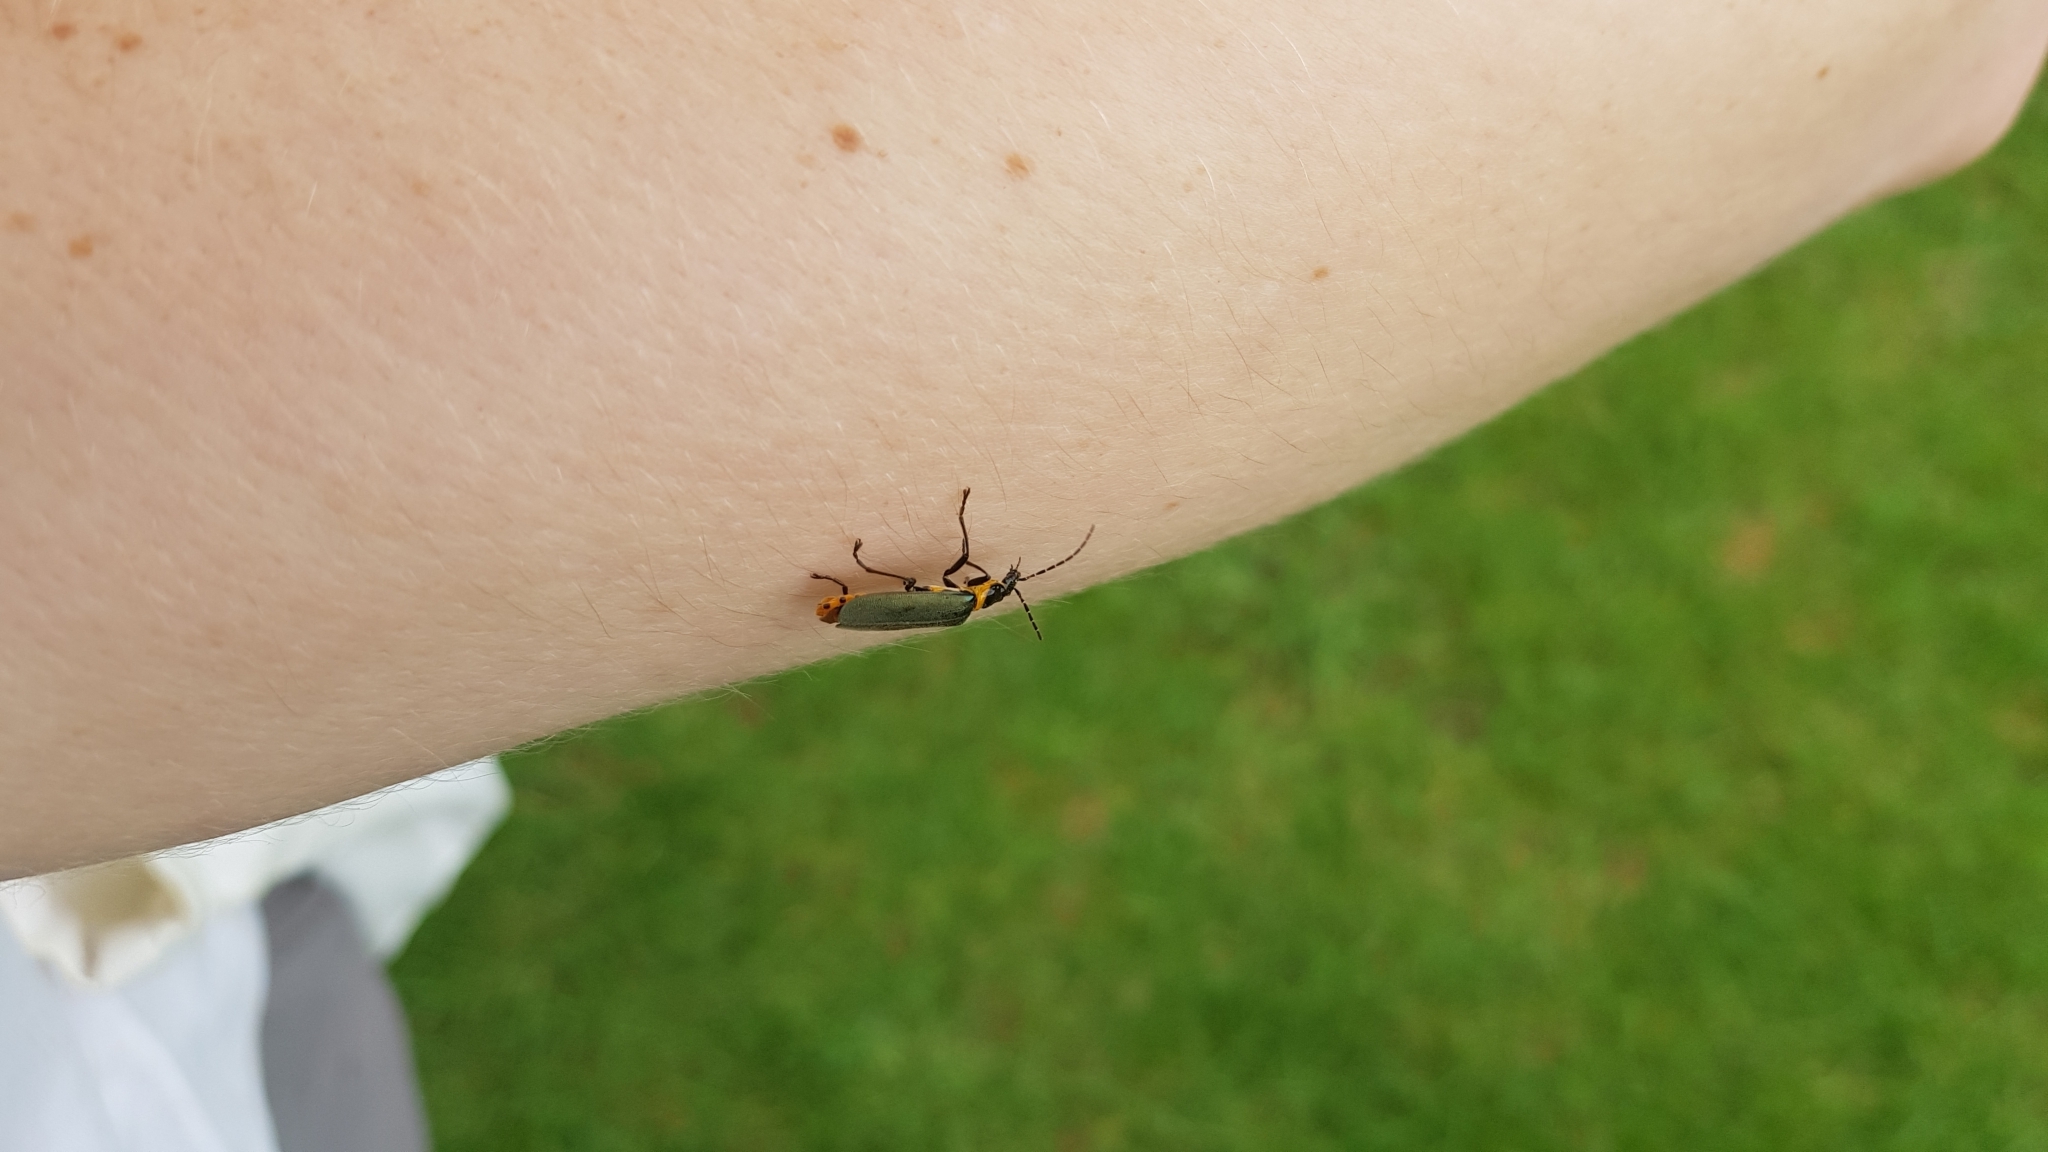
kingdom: Animalia
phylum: Arthropoda
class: Insecta
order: Coleoptera
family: Cantharidae
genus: Chauliognathus
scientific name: Chauliognathus
